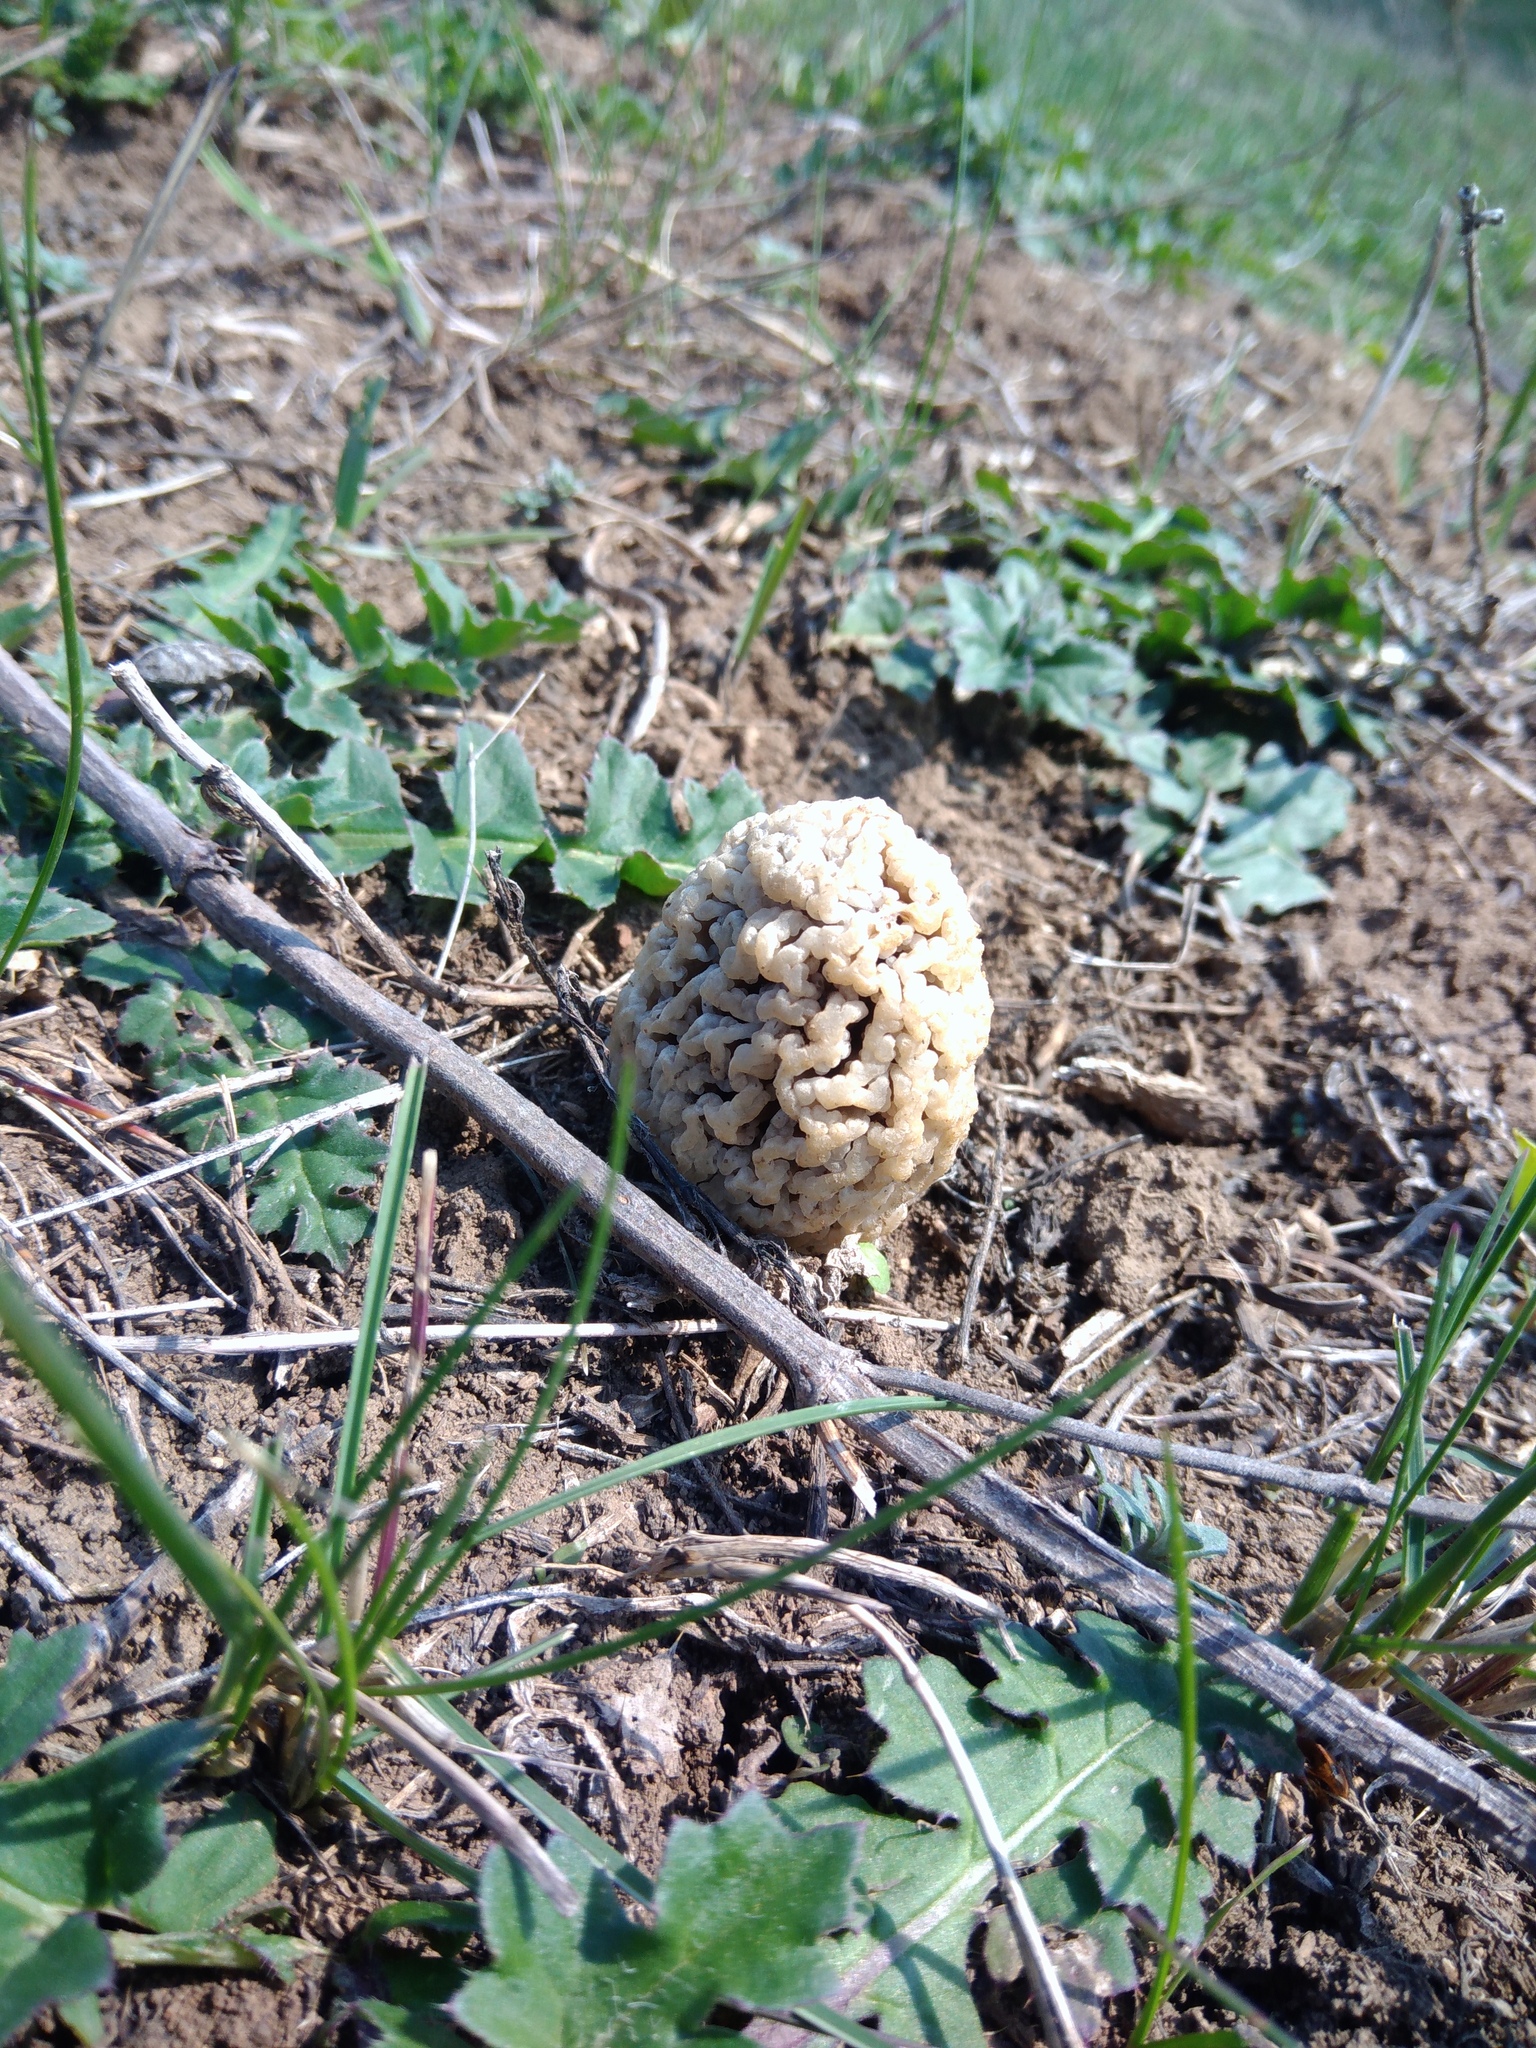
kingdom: Fungi
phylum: Ascomycota
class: Pezizomycetes
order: Pezizales
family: Morchellaceae
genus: Morchella
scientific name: Morchella steppicola
